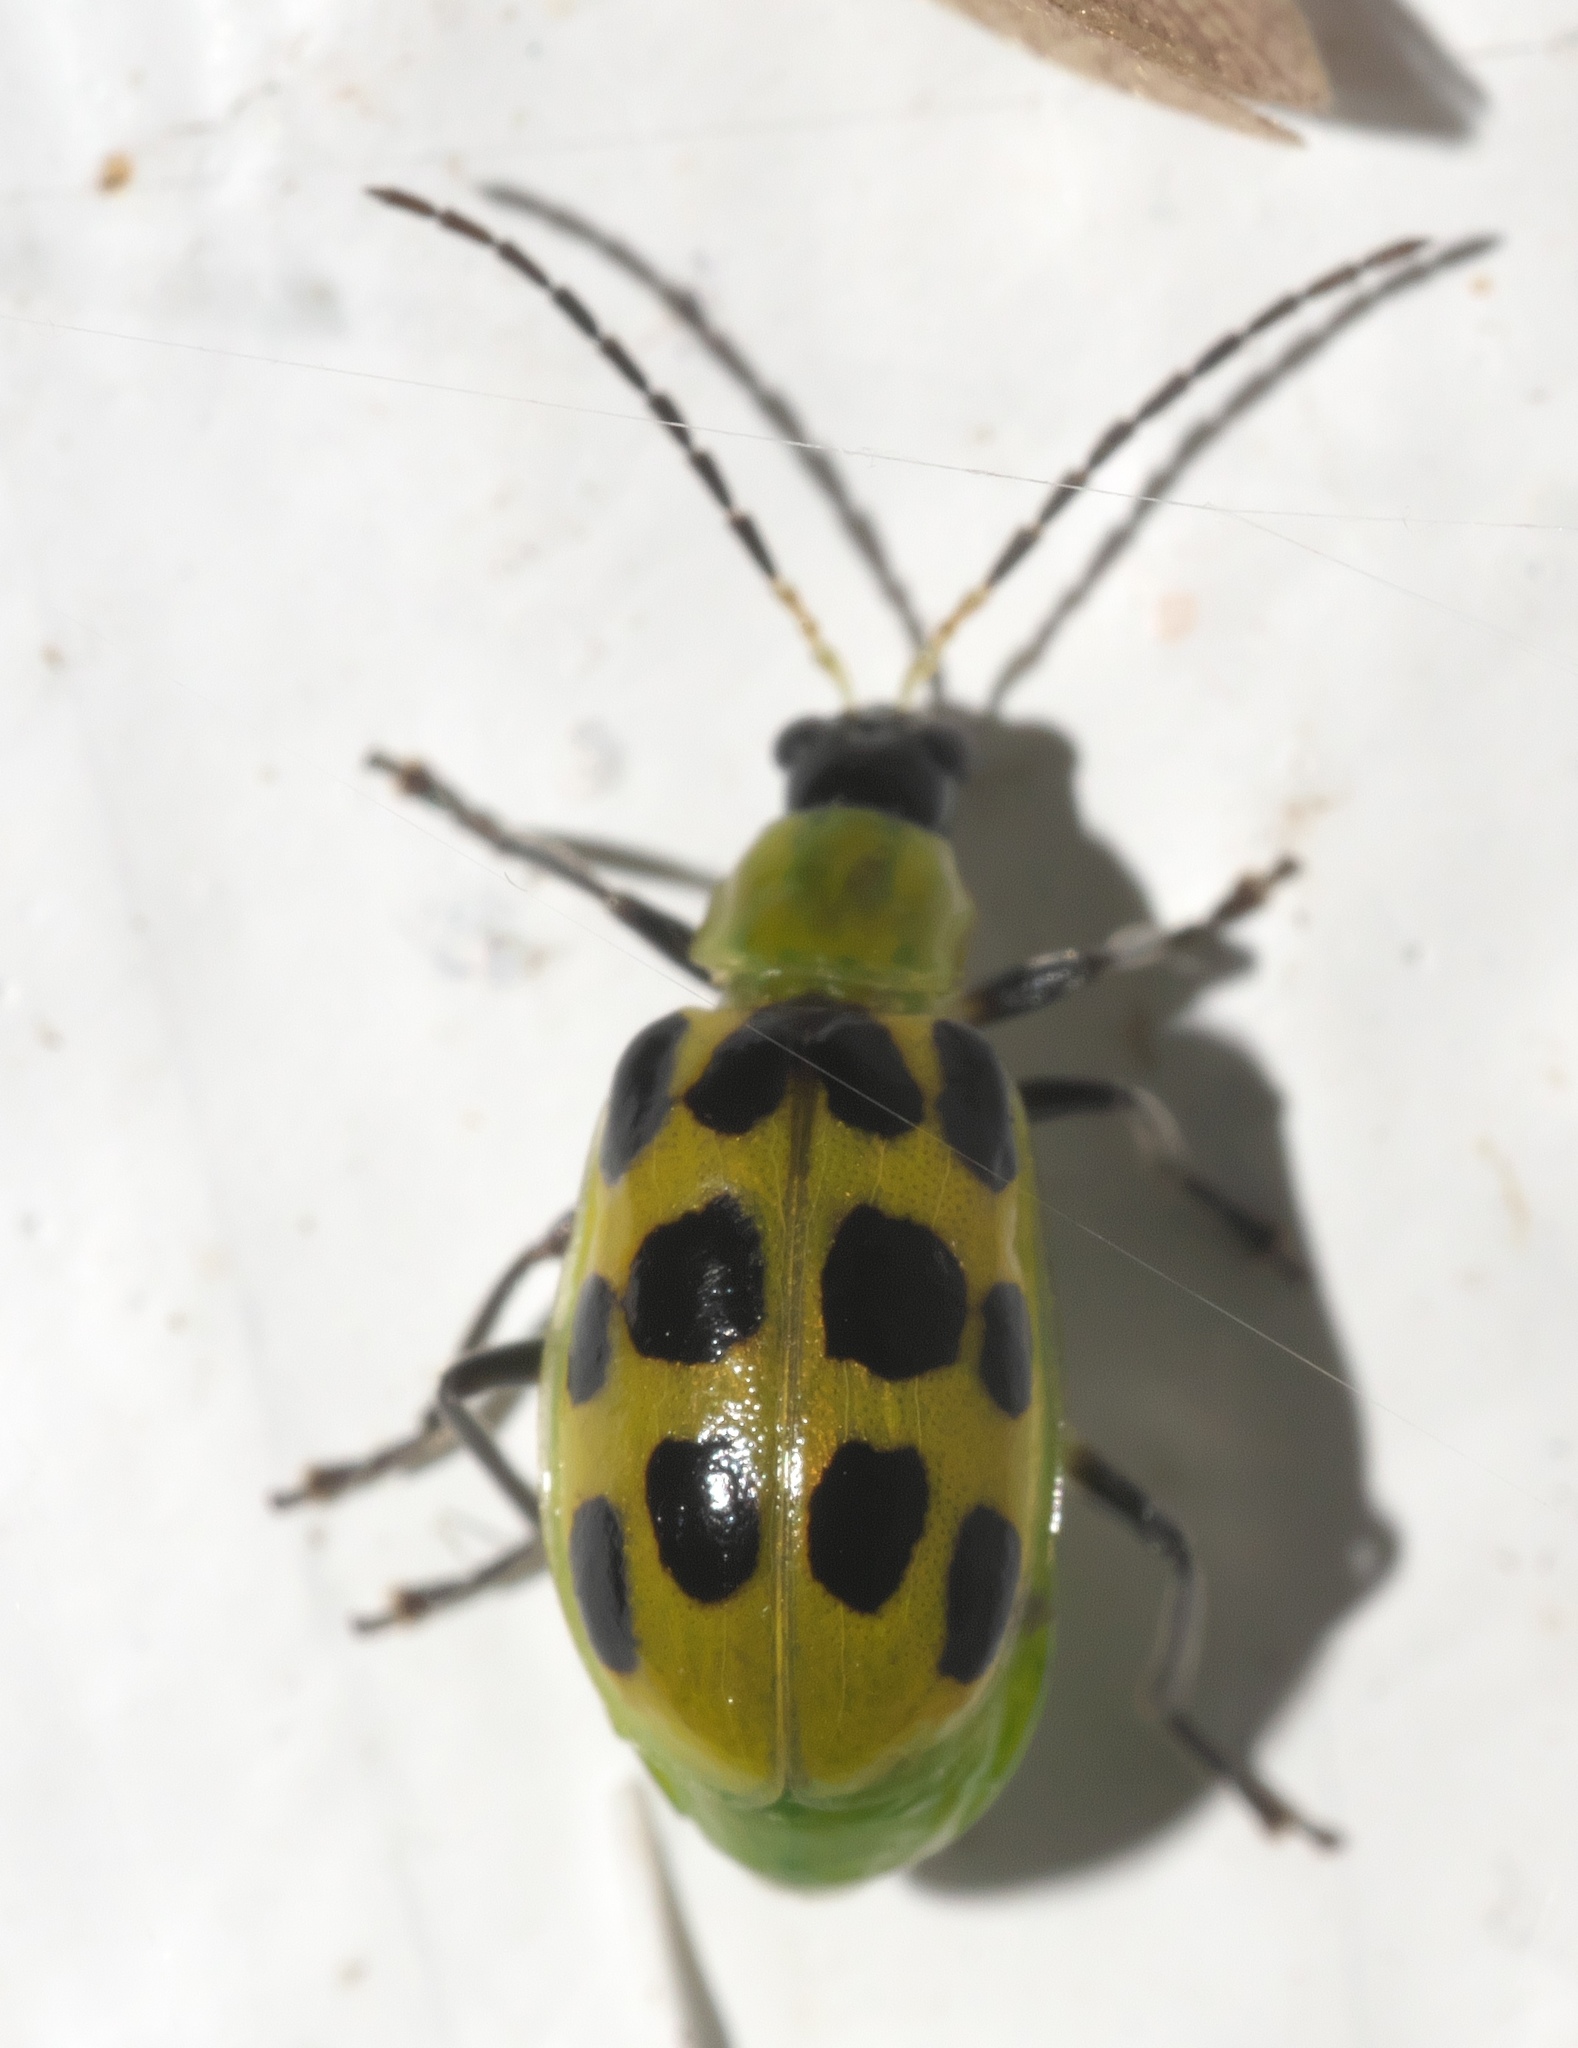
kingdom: Animalia
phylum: Arthropoda
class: Insecta
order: Coleoptera
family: Chrysomelidae
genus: Diabrotica
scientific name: Diabrotica undecimpunctata
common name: Spotted cucumber beetle
